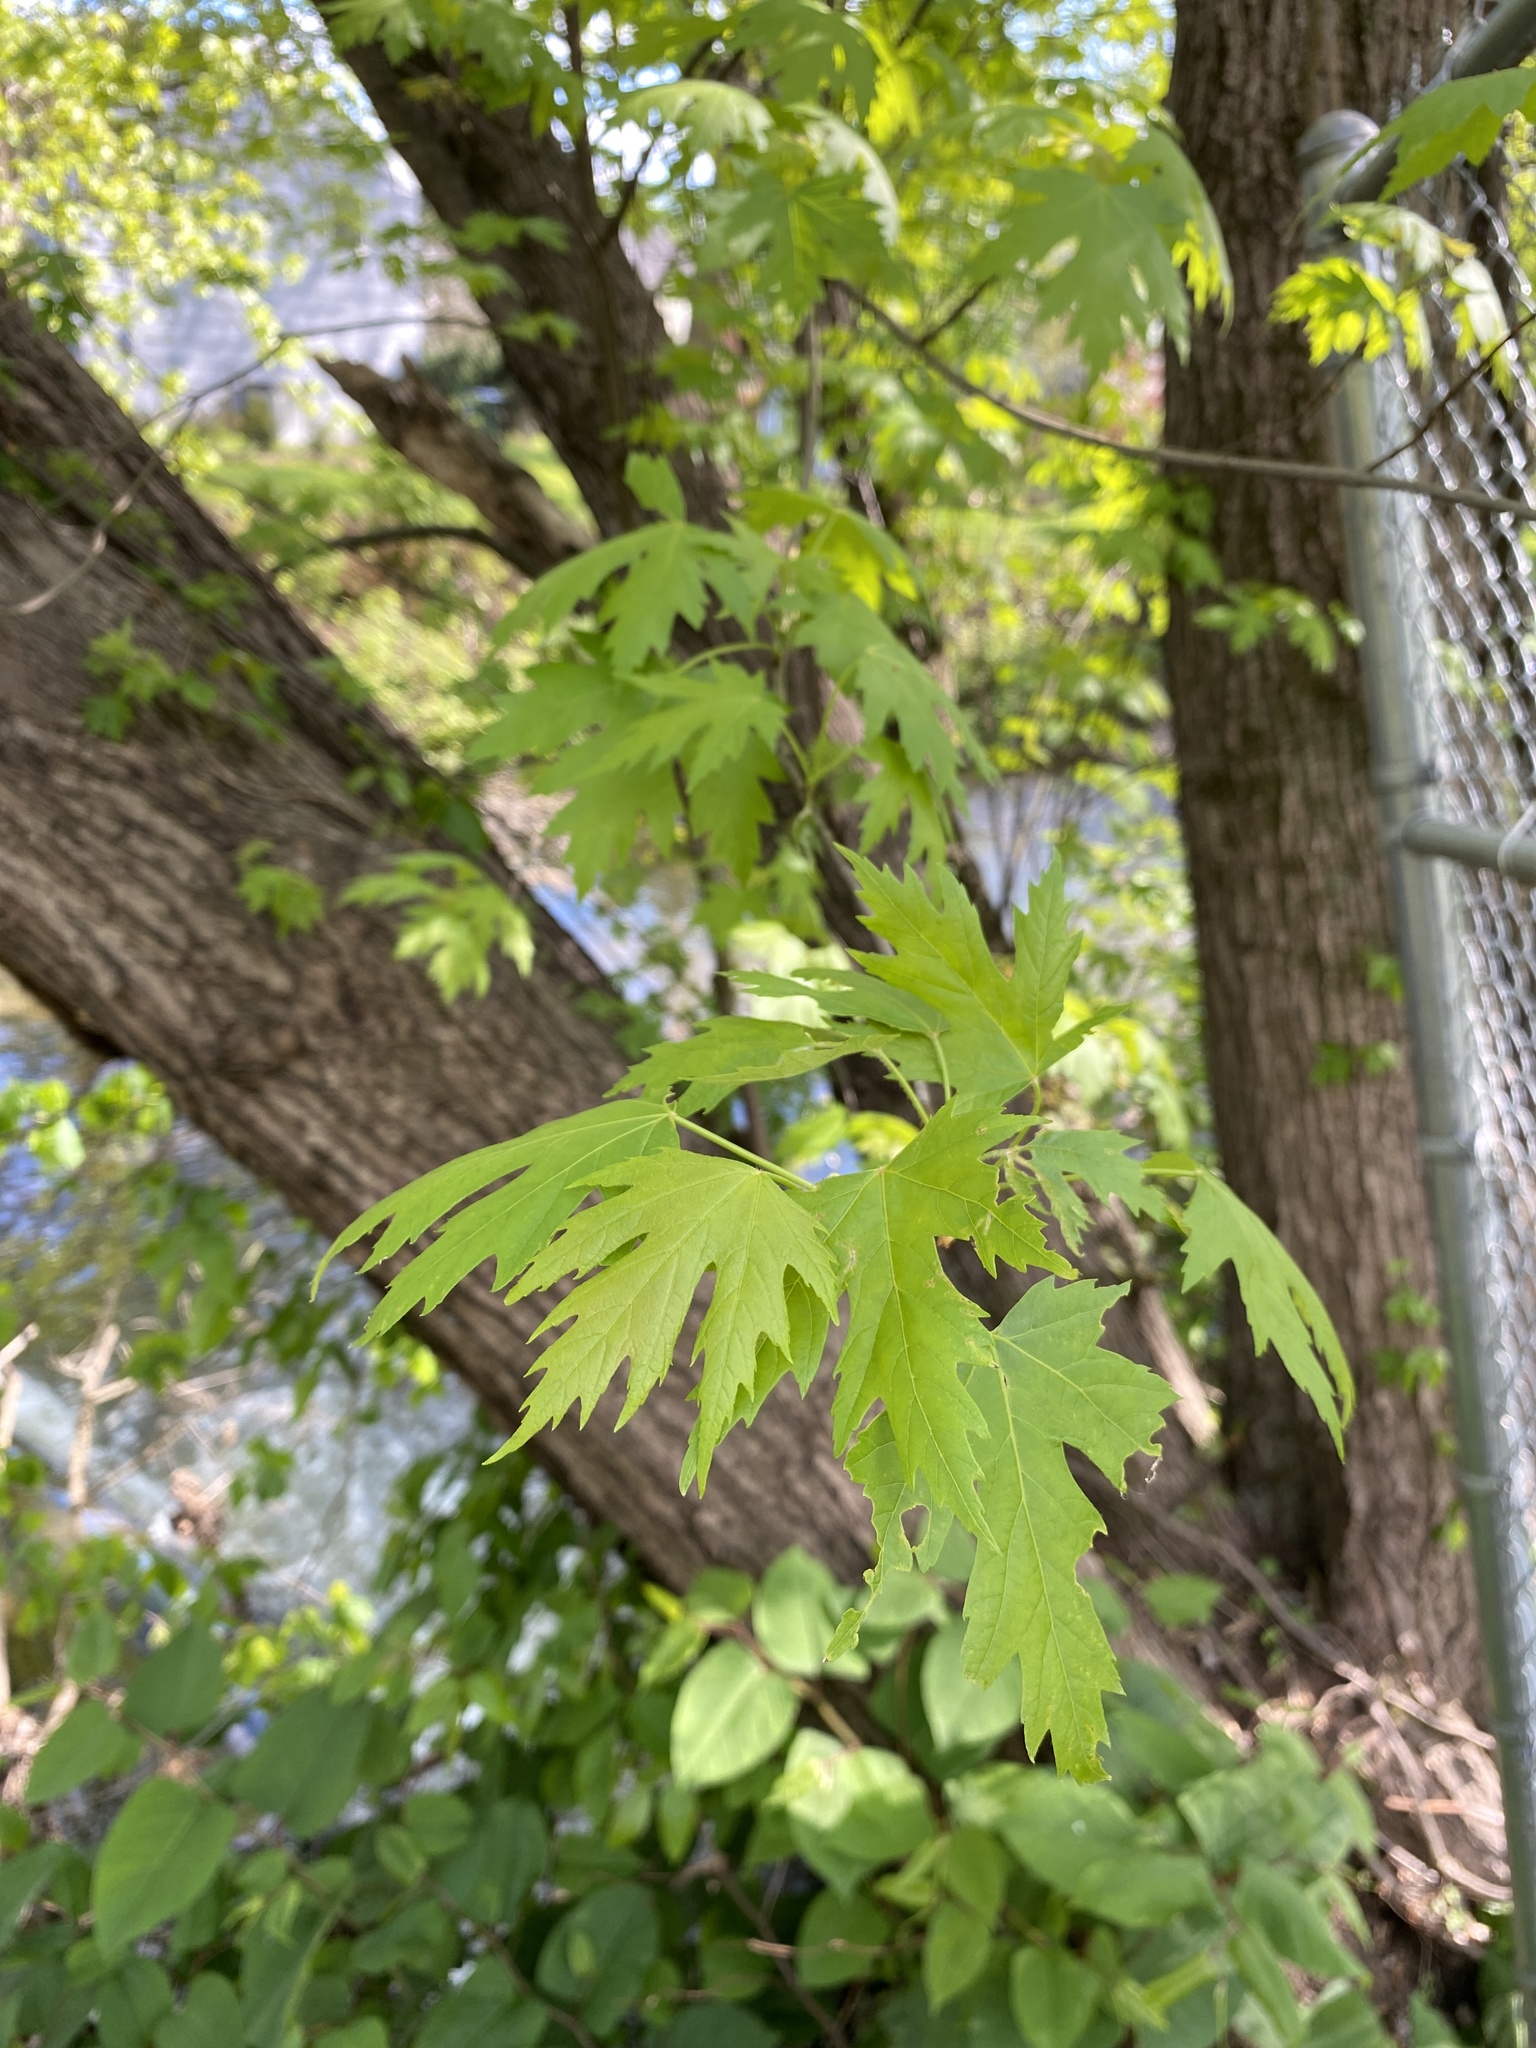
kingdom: Plantae
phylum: Tracheophyta
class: Magnoliopsida
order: Sapindales
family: Sapindaceae
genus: Acer
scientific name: Acer saccharinum
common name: Silver maple
